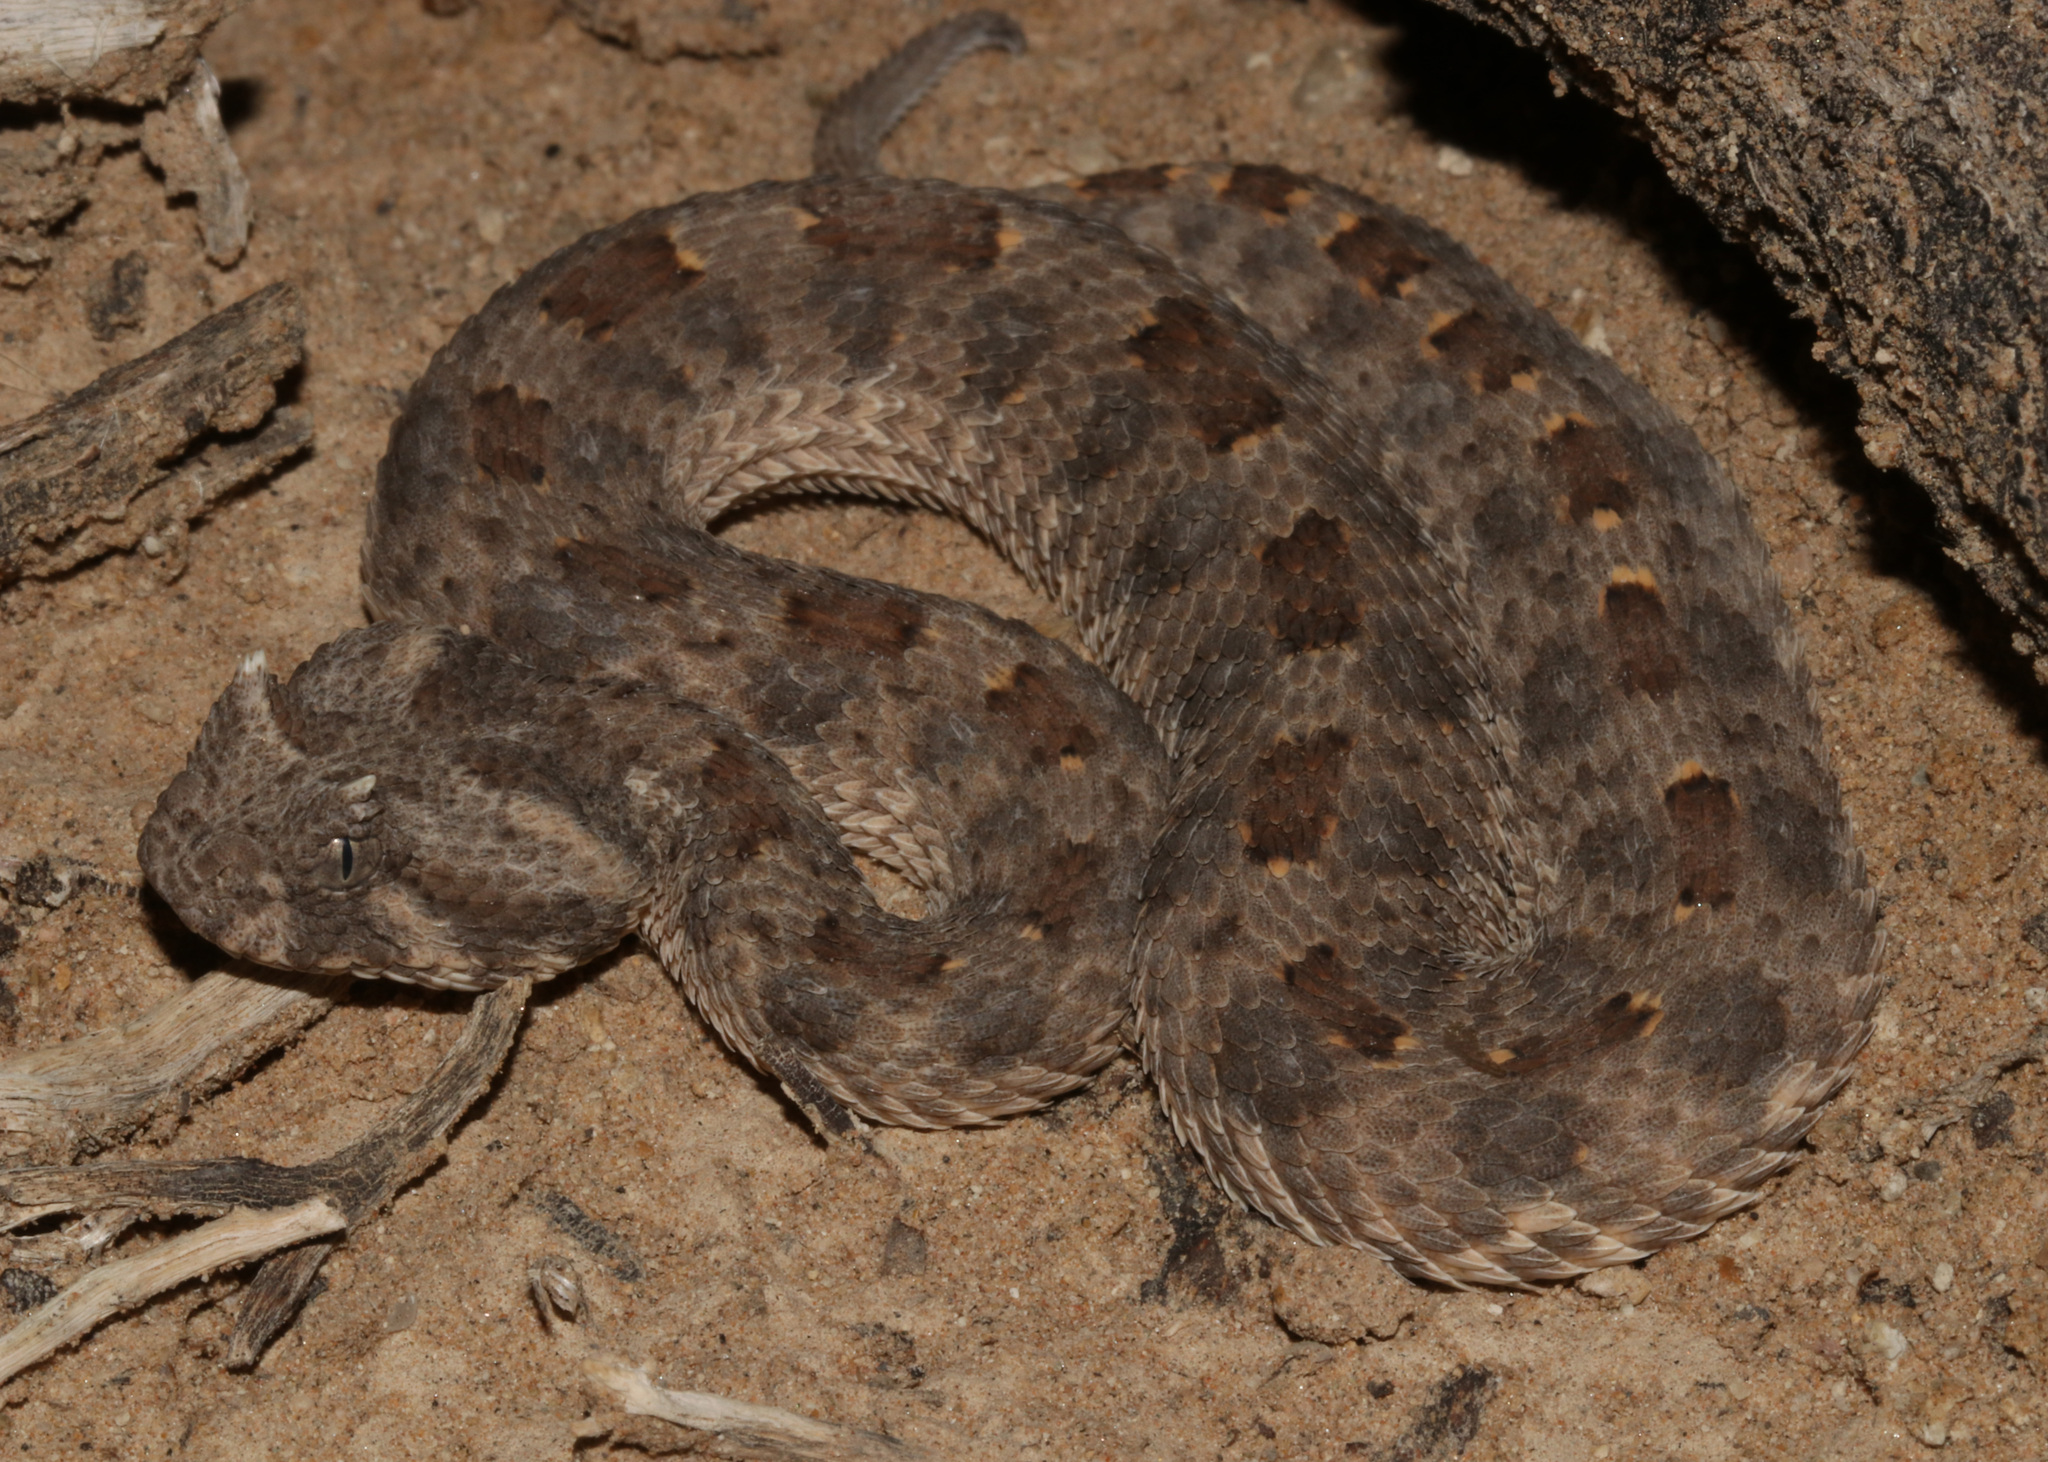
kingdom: Animalia
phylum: Chordata
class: Squamata
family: Viperidae
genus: Bitis
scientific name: Bitis caudalis
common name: Horned adder
